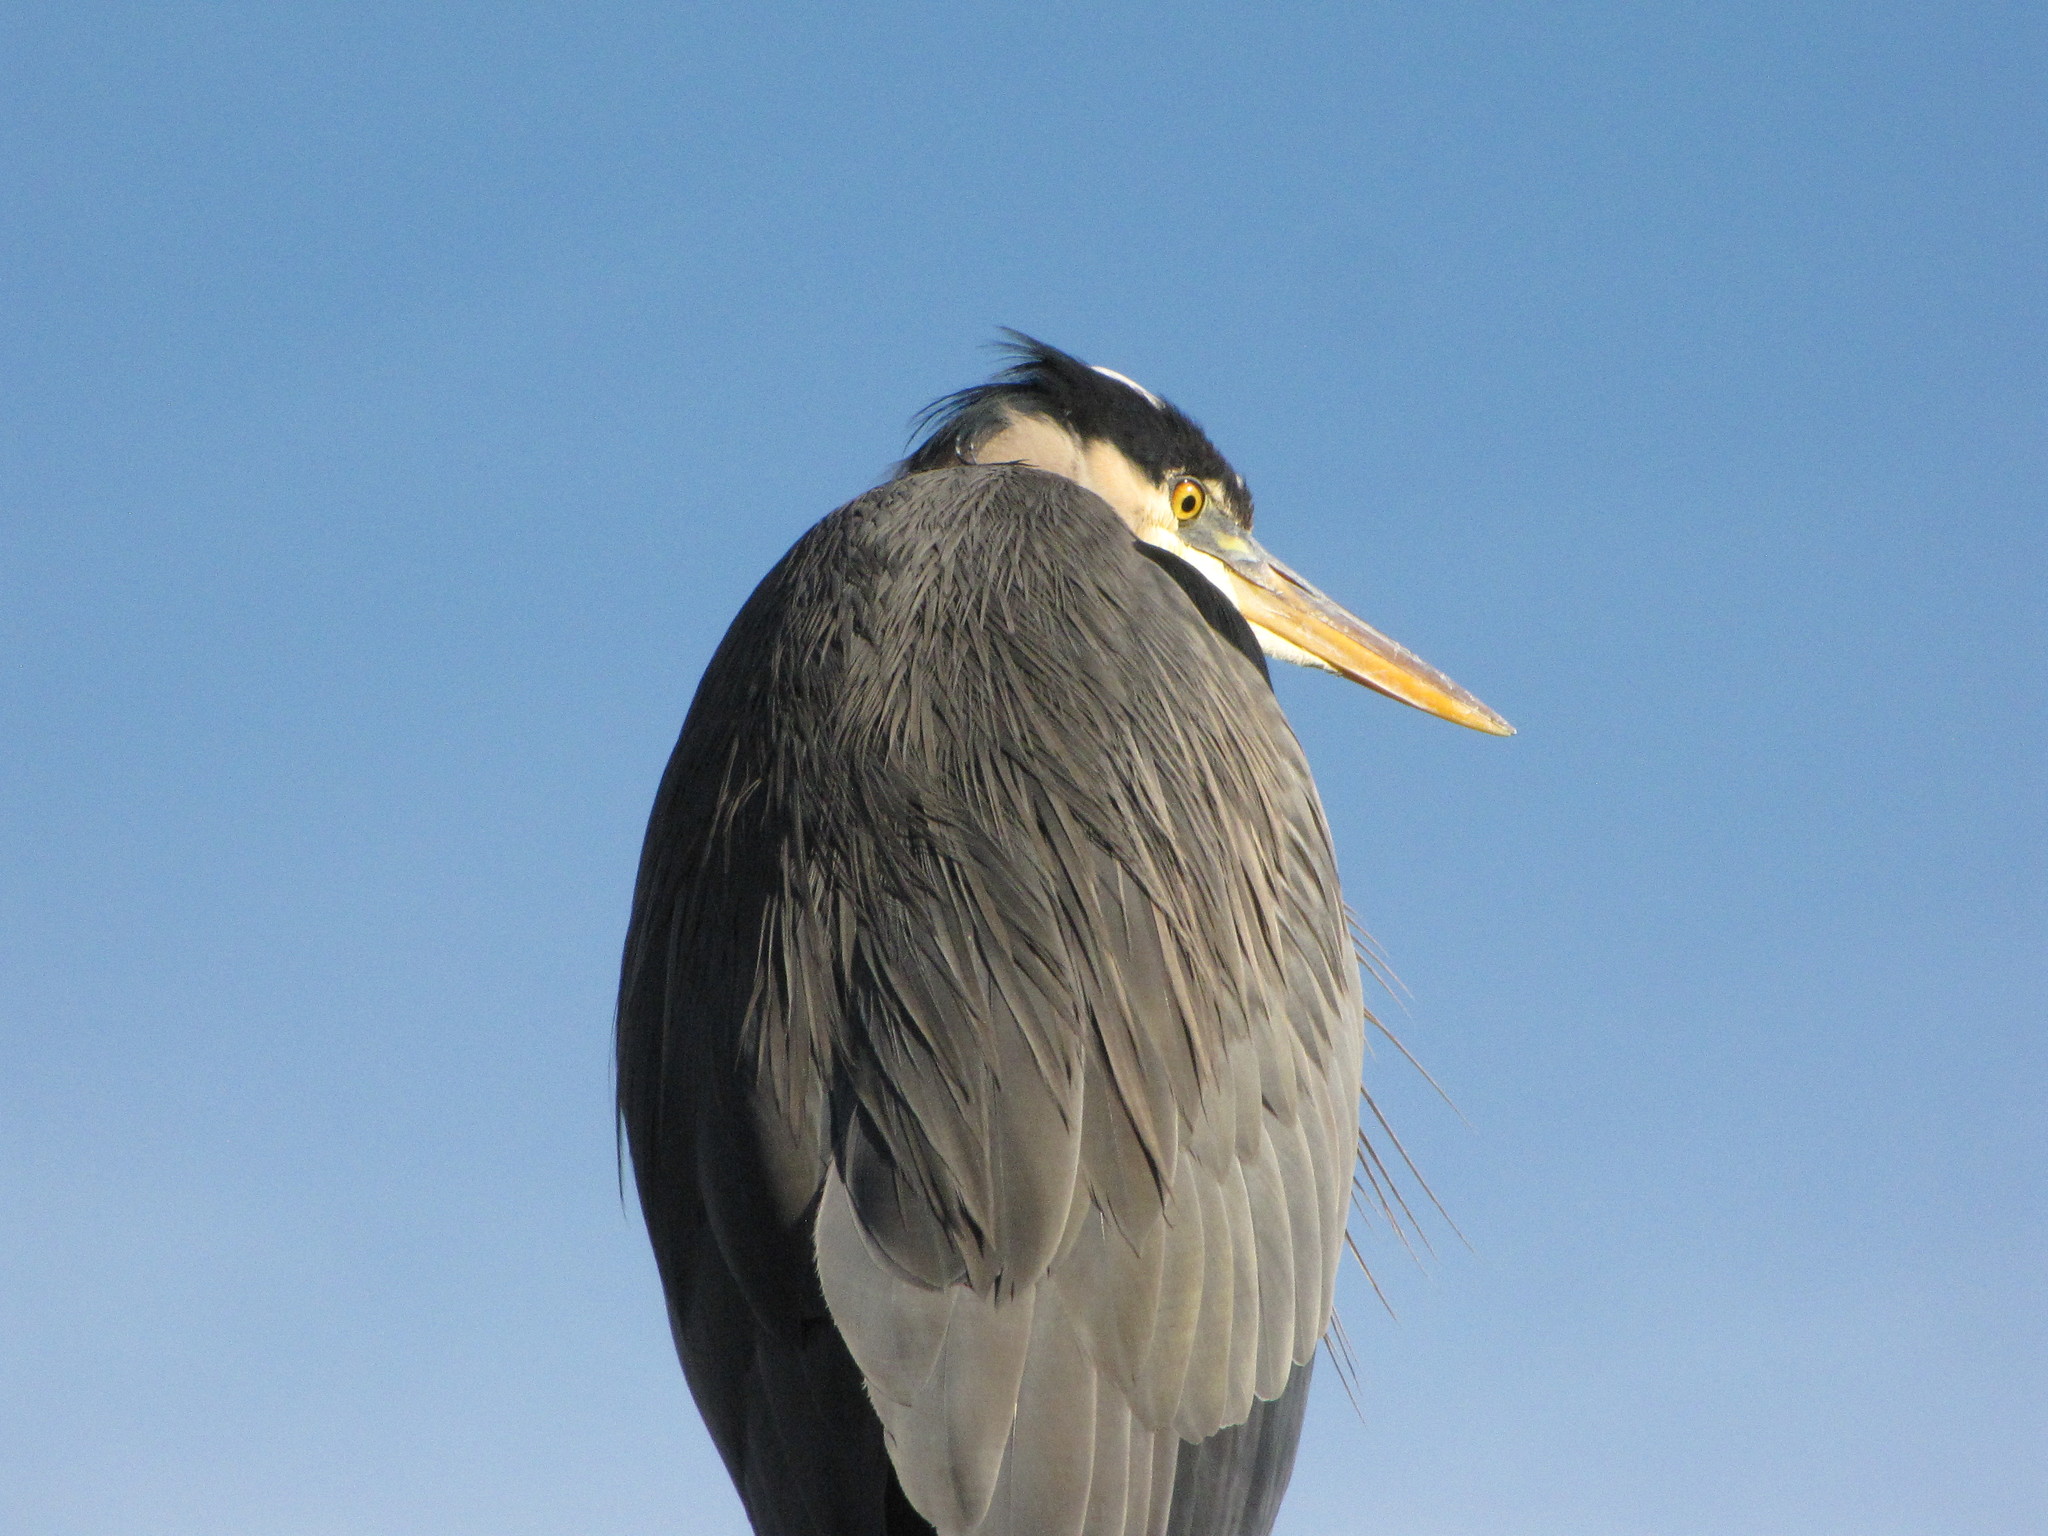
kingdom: Animalia
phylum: Chordata
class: Aves
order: Pelecaniformes
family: Ardeidae
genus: Ardea
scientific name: Ardea herodias
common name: Great blue heron
